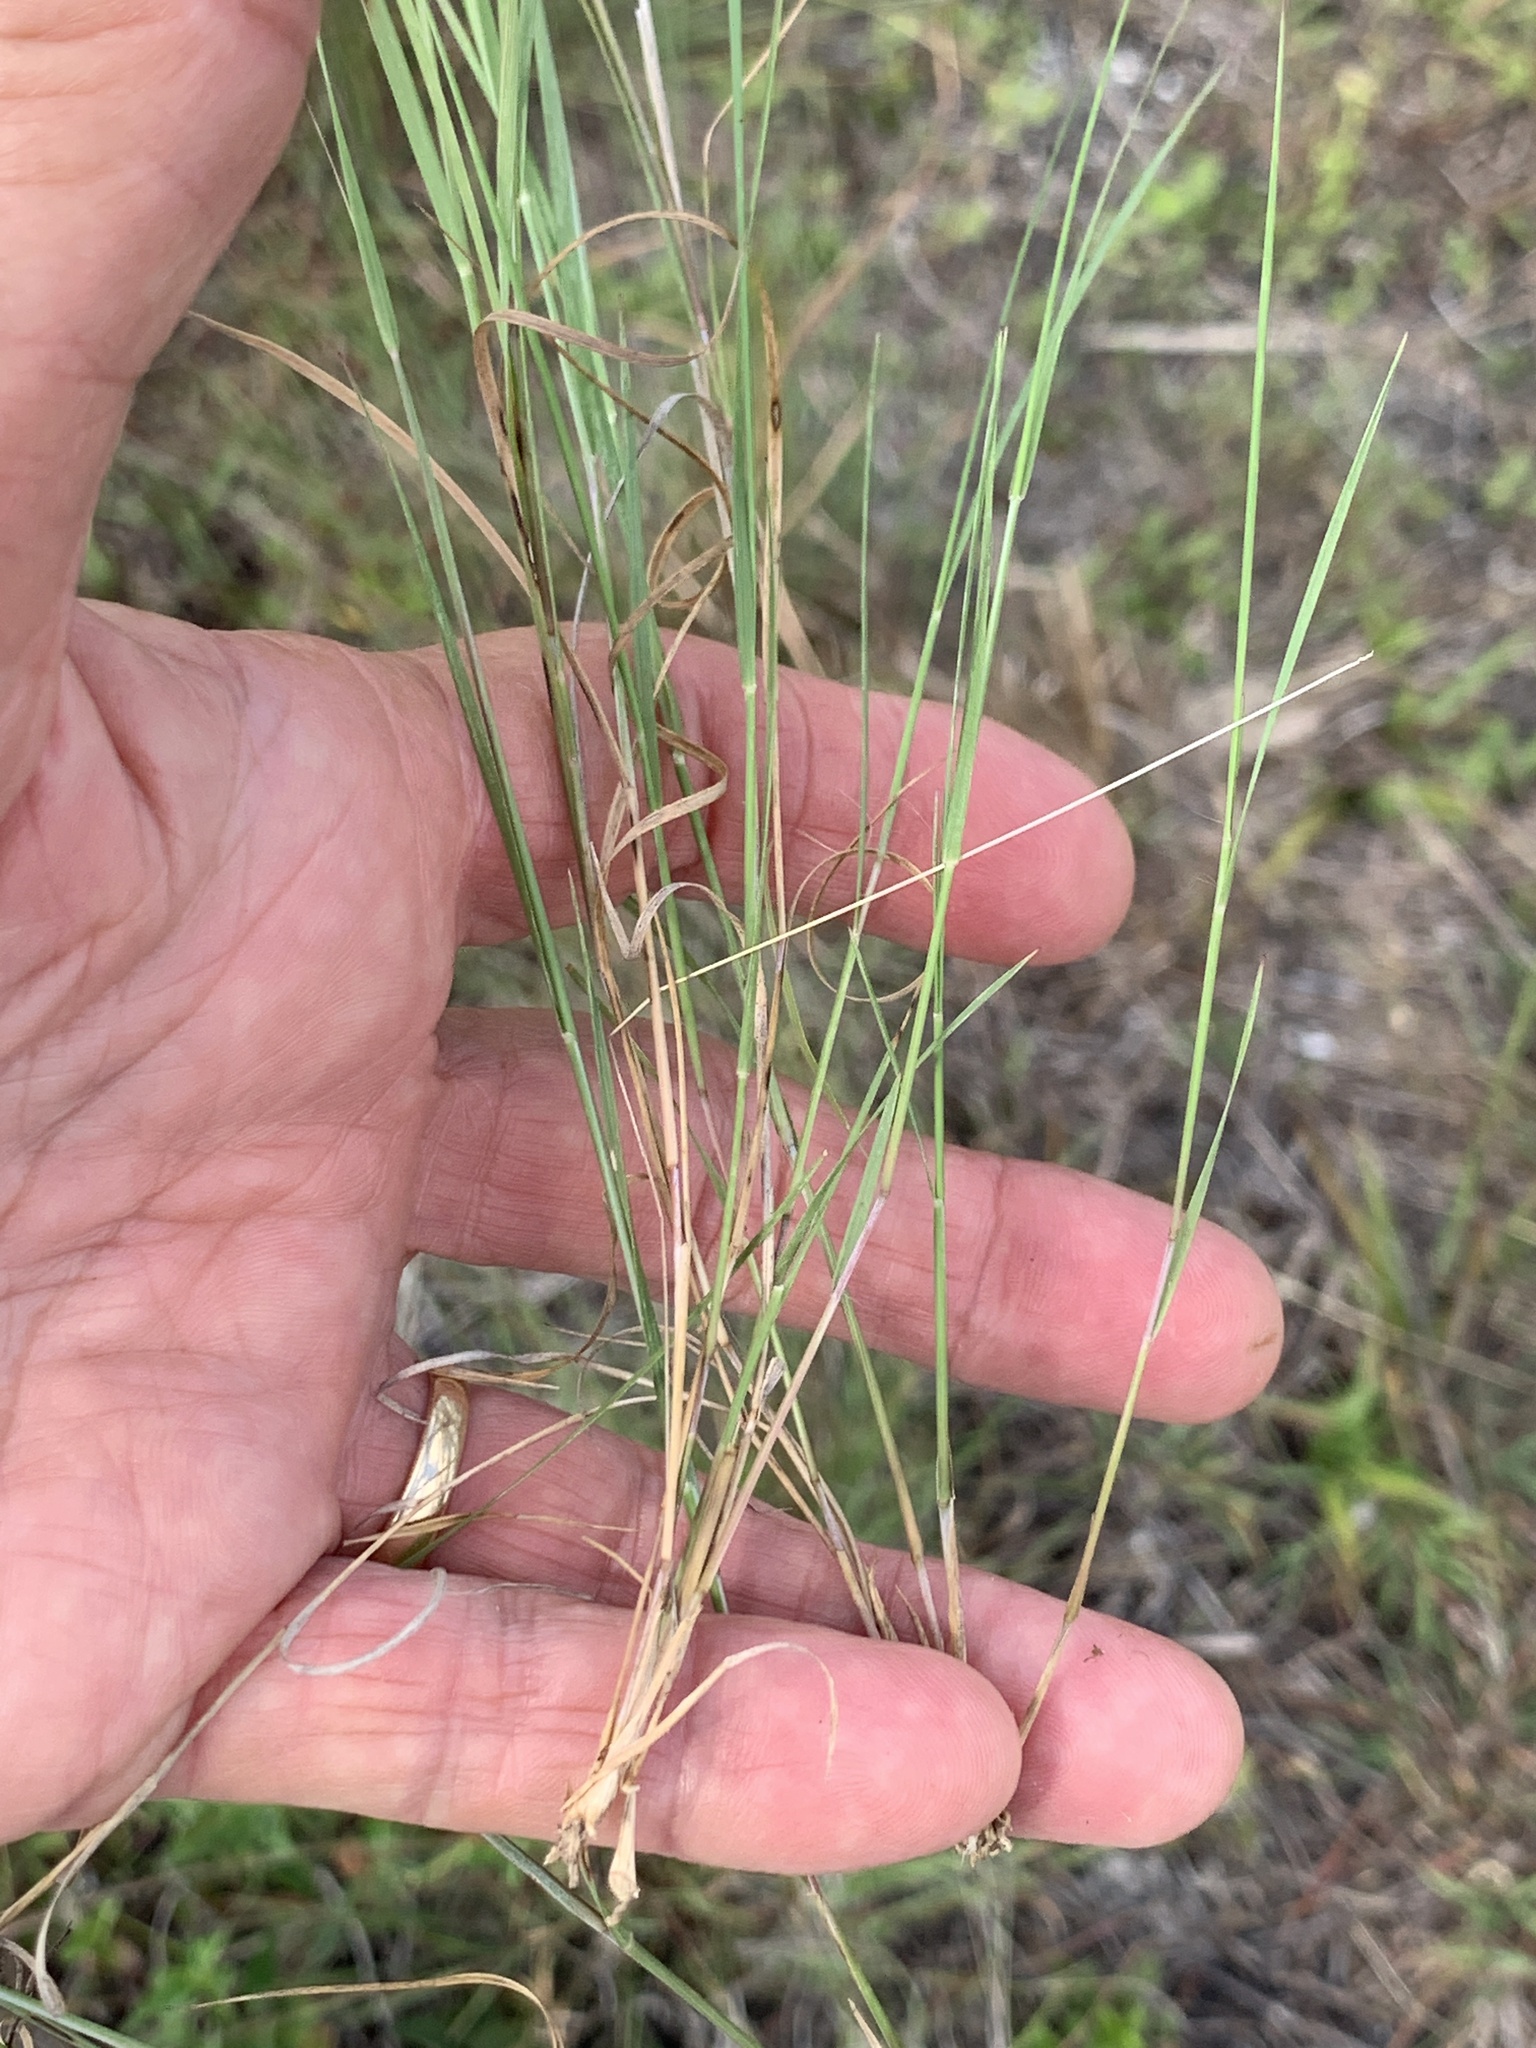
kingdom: Plantae
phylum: Tracheophyta
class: Liliopsida
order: Poales
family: Poaceae
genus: Aristida
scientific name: Aristida purpurascens
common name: Arrow-feather
